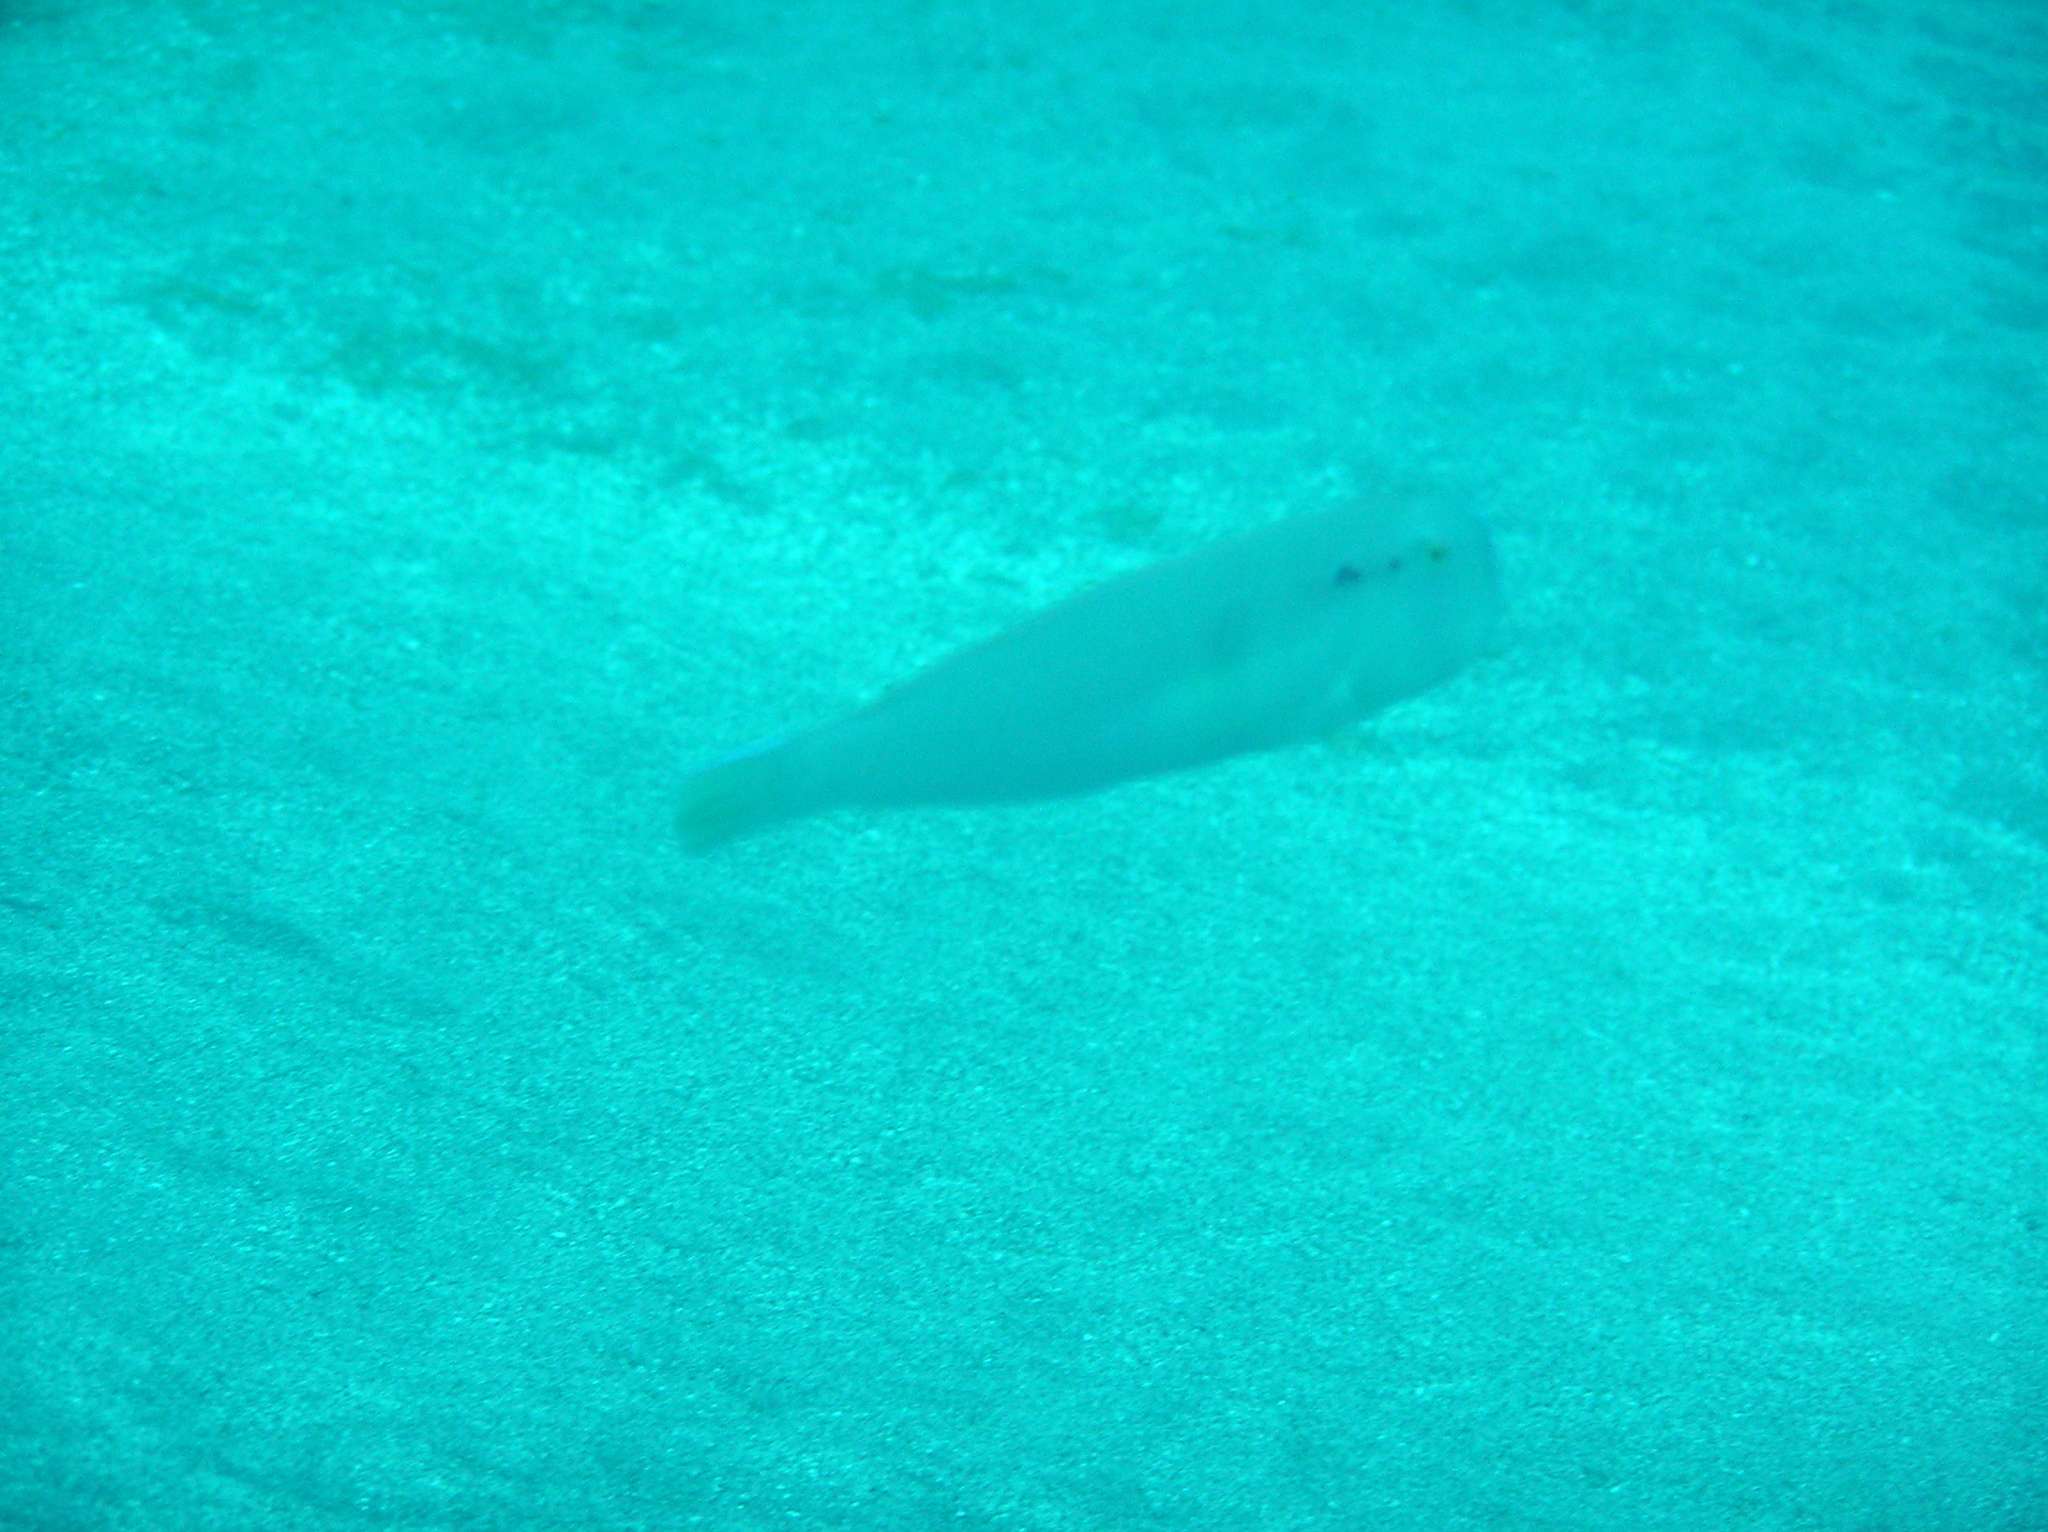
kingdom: Animalia
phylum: Chordata
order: Perciformes
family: Labridae
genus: Iniistius
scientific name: Iniistius pentadactylus
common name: Fivefinger razorfish
